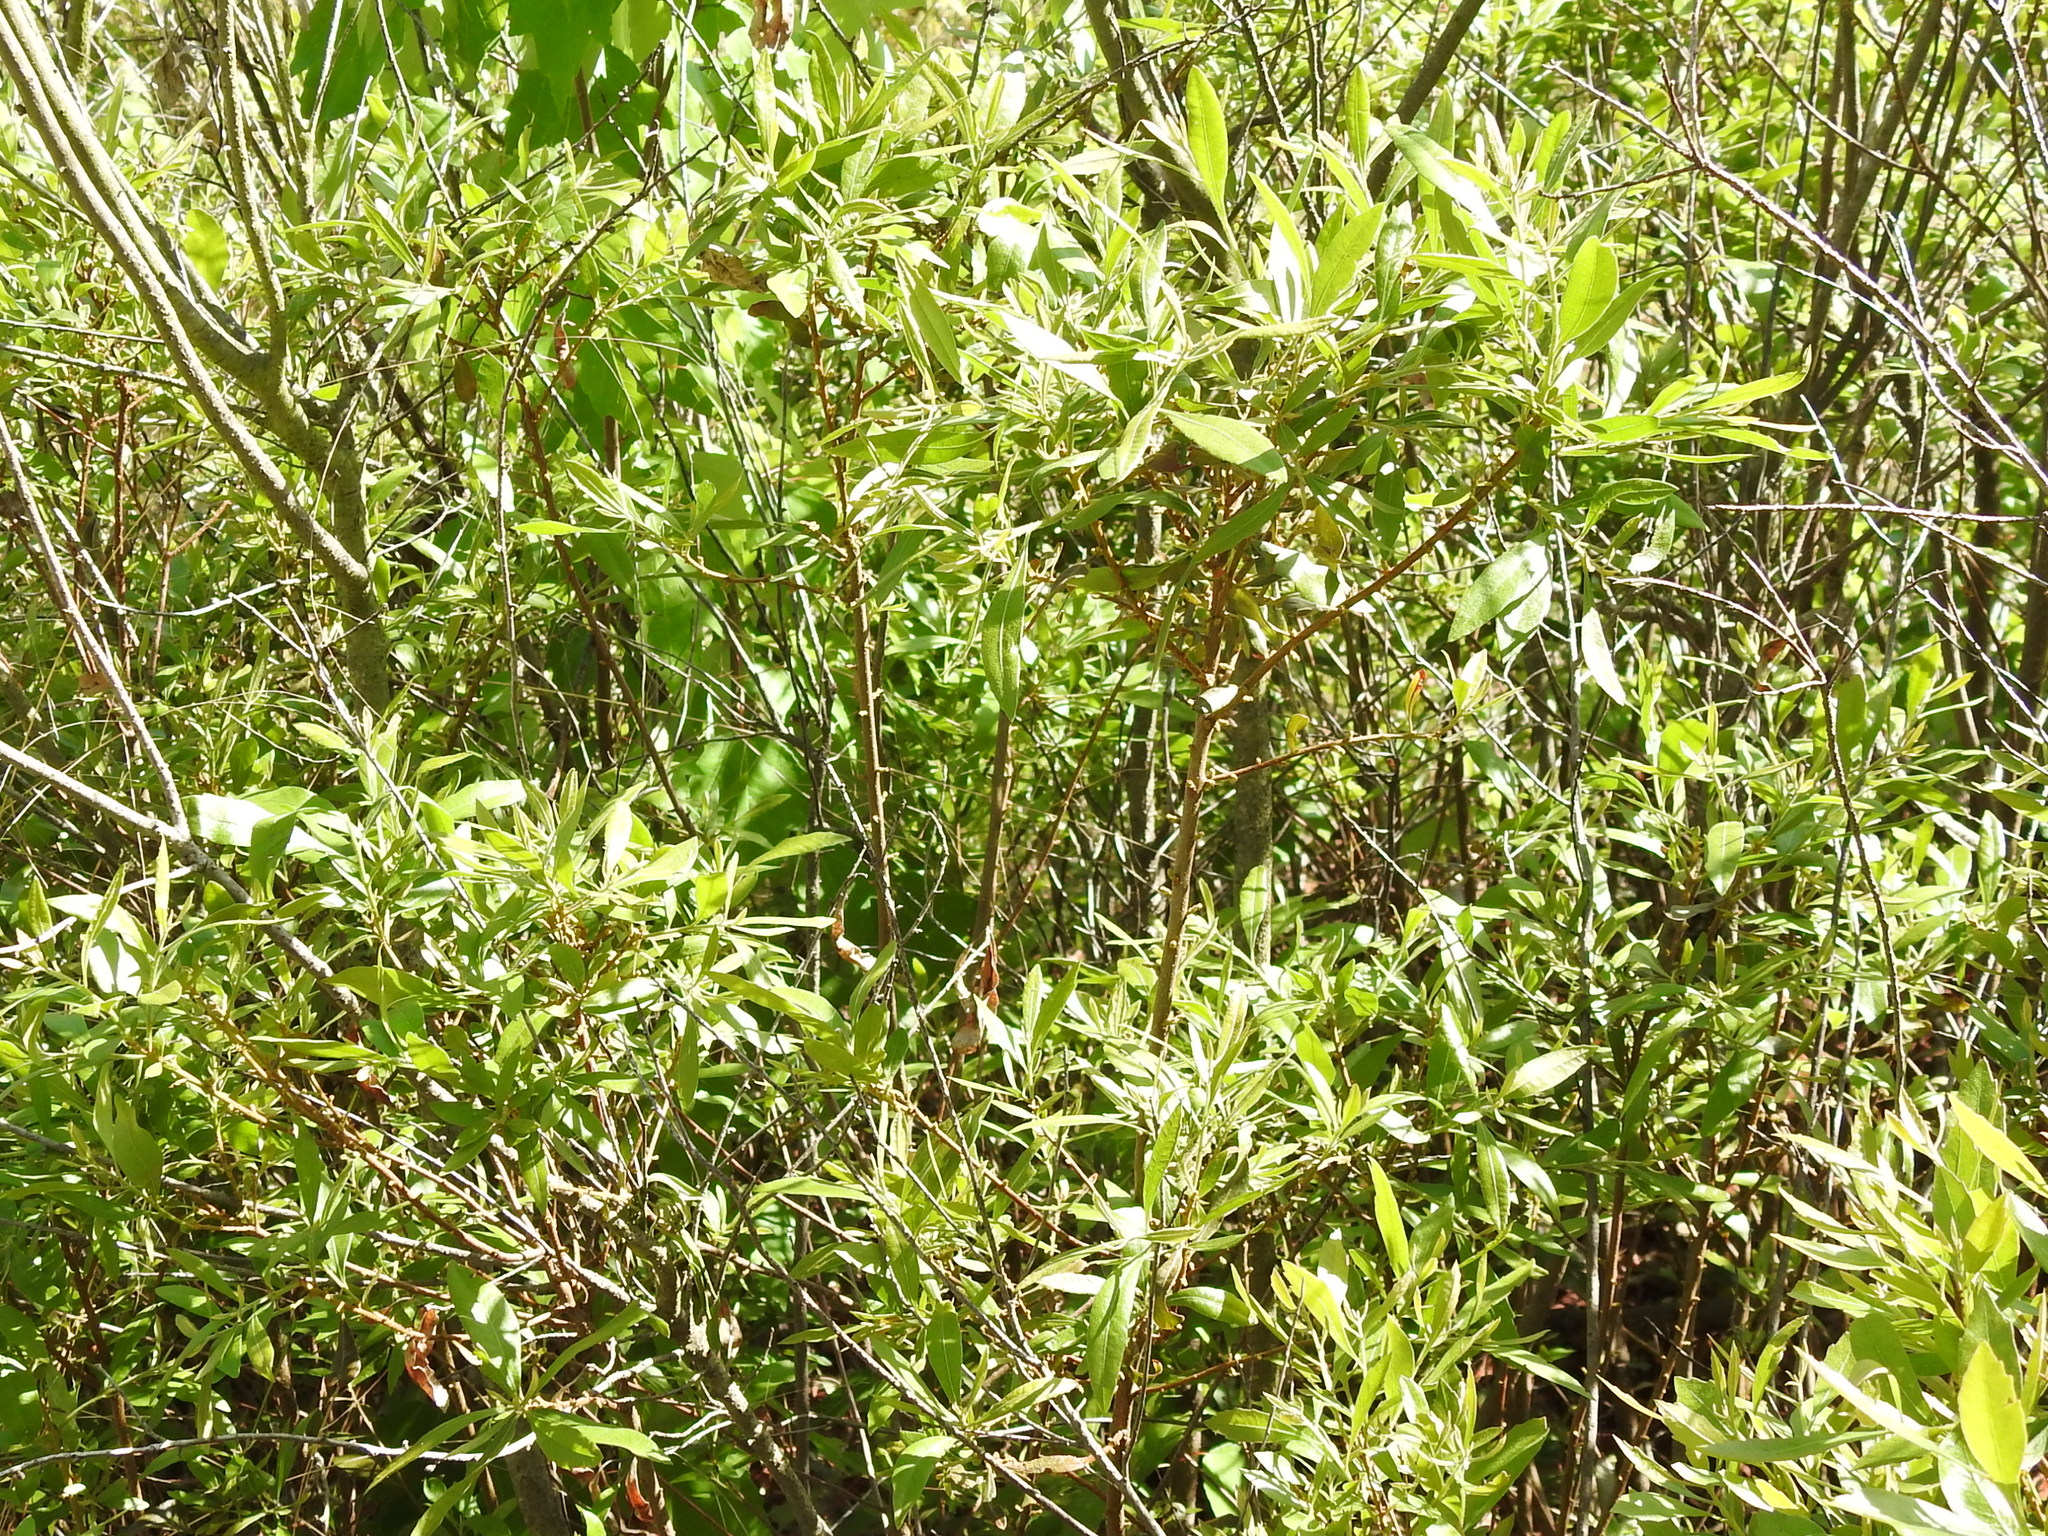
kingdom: Plantae
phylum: Tracheophyta
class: Magnoliopsida
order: Fagales
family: Myricaceae
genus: Morella
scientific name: Morella cerifera
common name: Wax myrtle
